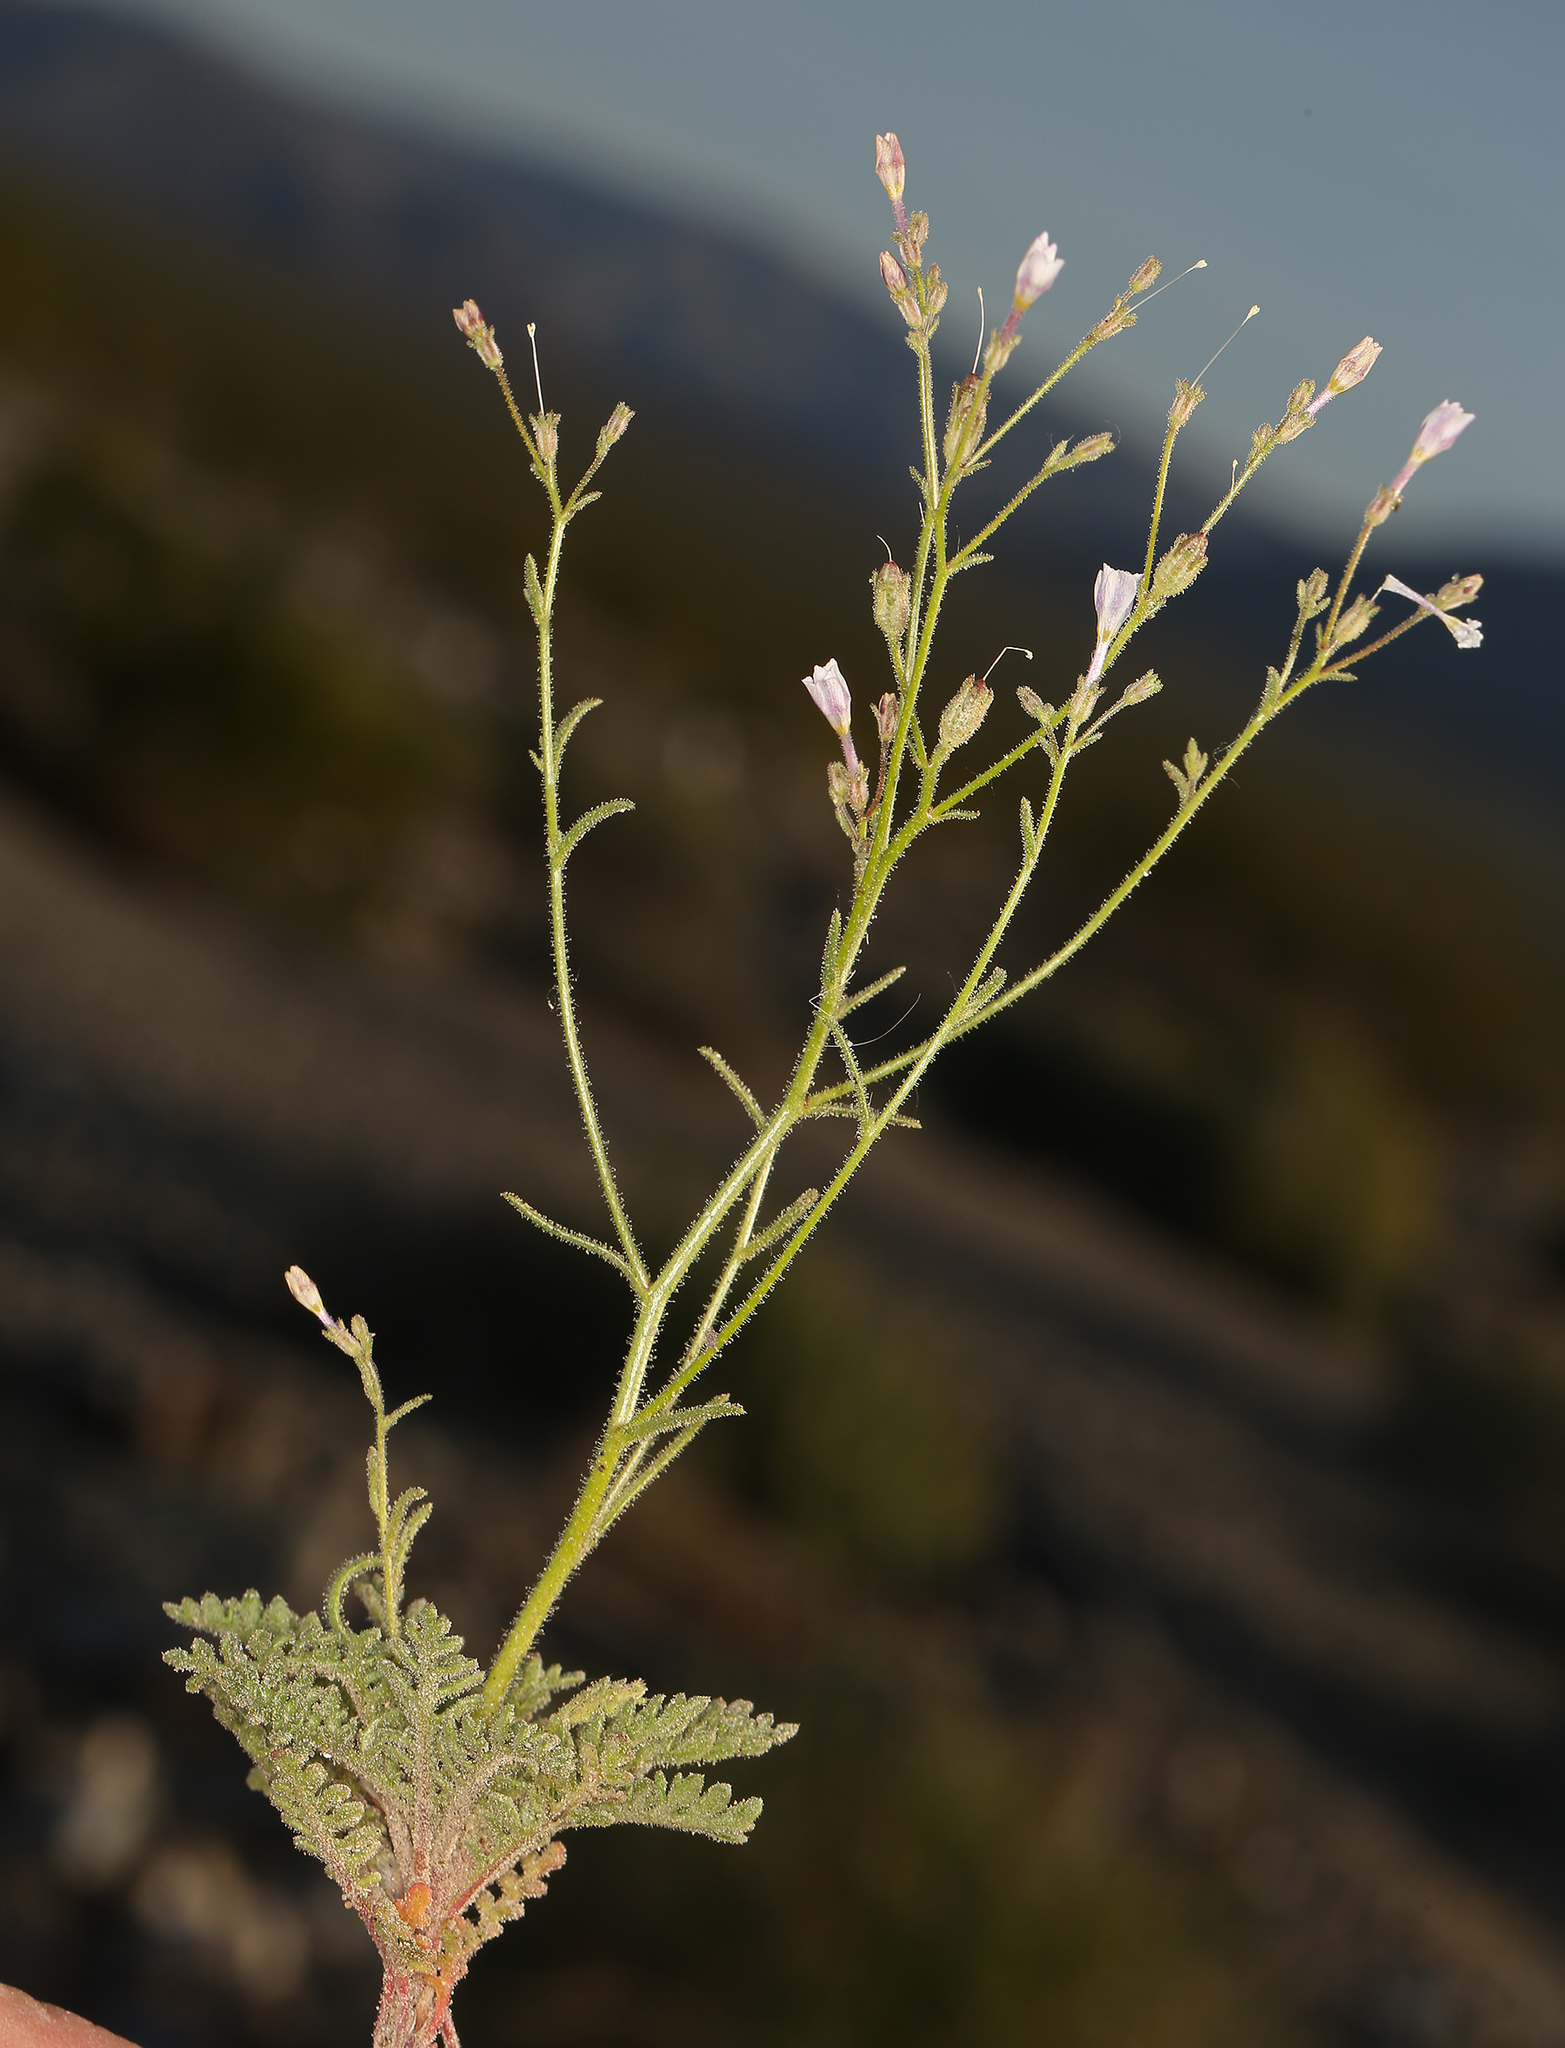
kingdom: Plantae
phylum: Tracheophyta
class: Magnoliopsida
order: Ericales
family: Polemoniaceae
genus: Aliciella
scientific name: Aliciella hutchinsifolia
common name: Desert pale gilia
